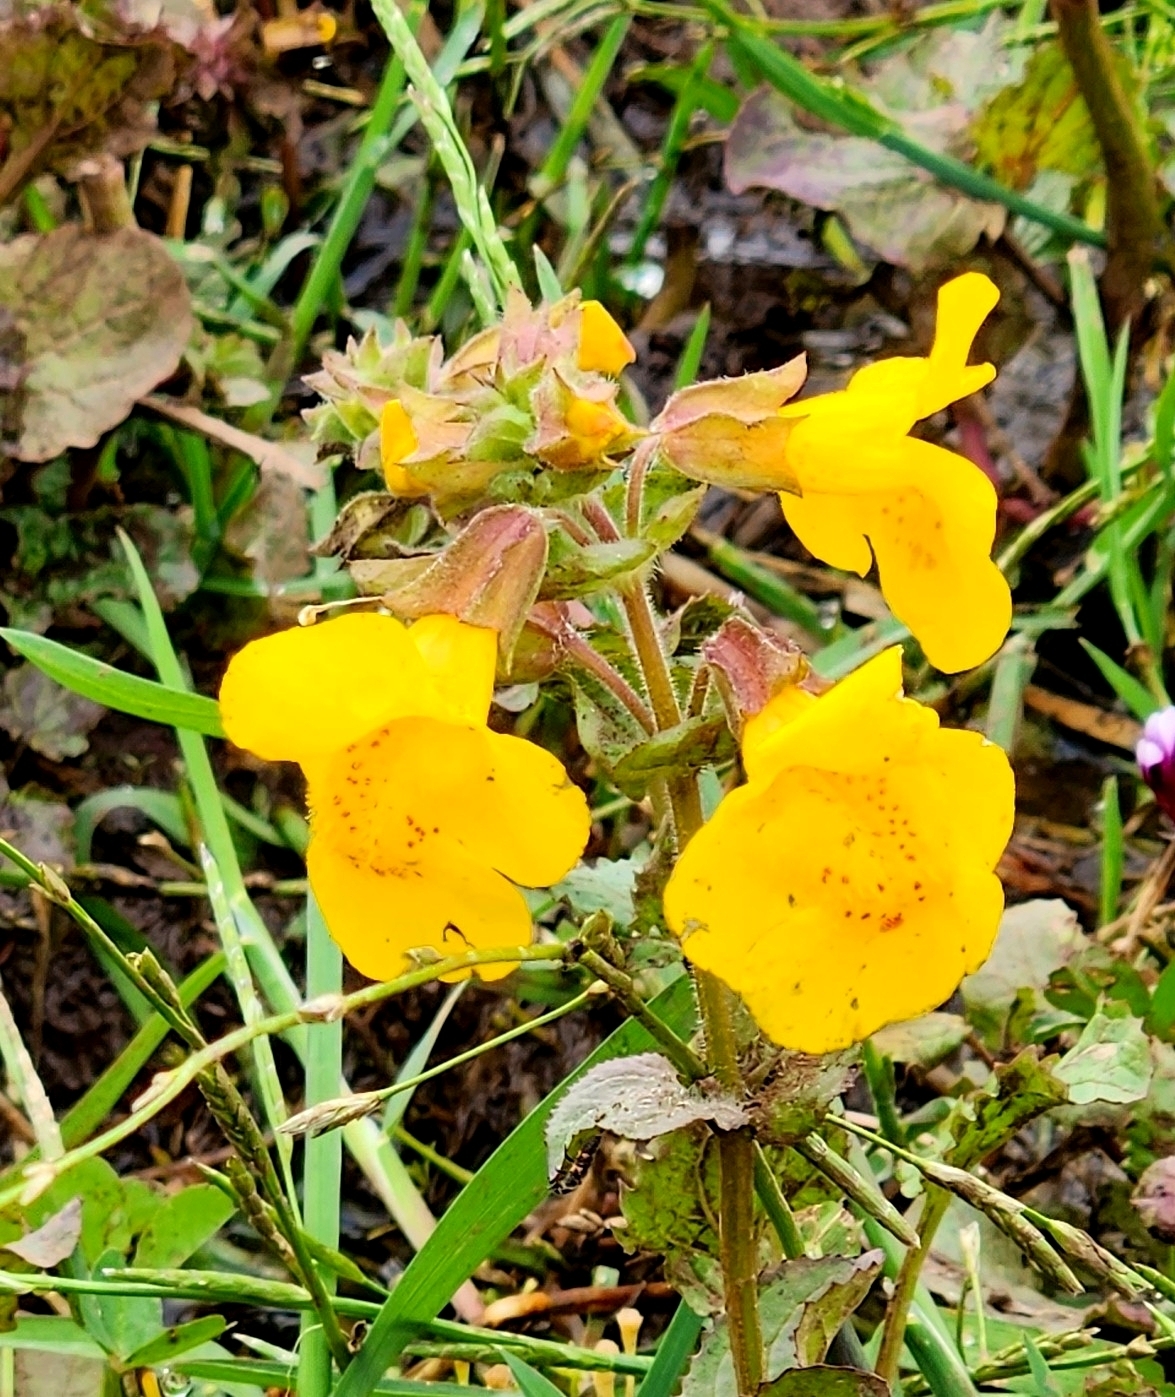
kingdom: Plantae
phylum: Tracheophyta
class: Magnoliopsida
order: Lamiales
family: Phrymaceae
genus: Erythranthe
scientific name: Erythranthe guttata
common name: Monkeyflower
